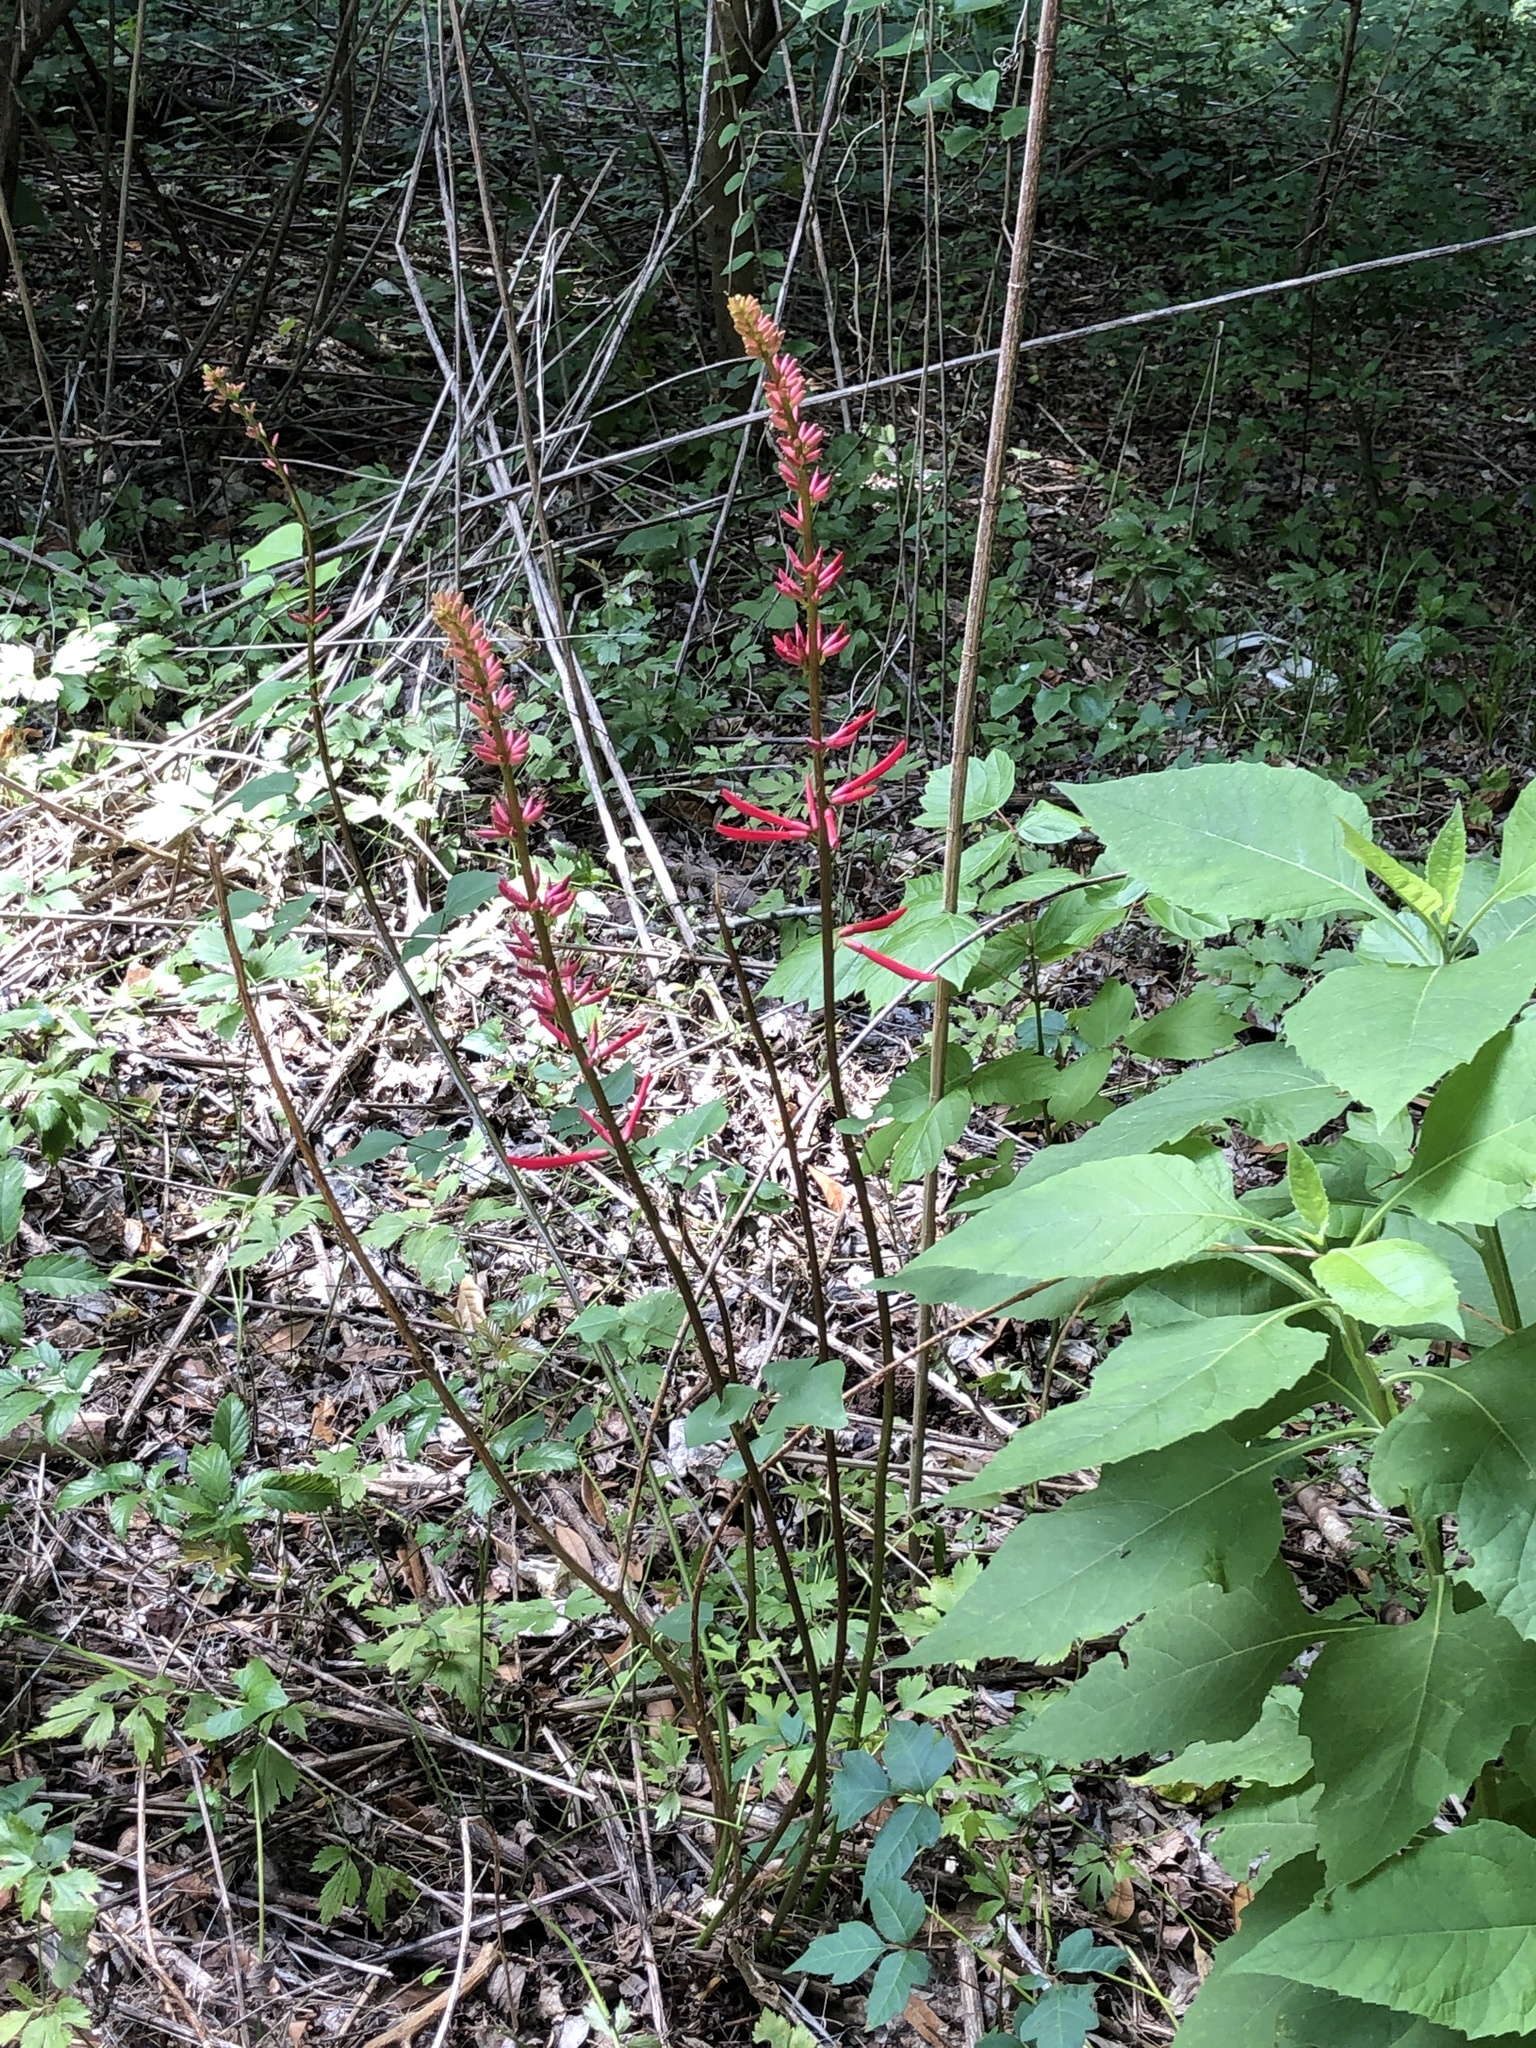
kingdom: Plantae
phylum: Tracheophyta
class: Magnoliopsida
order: Fabales
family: Fabaceae
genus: Erythrina
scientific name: Erythrina herbacea
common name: Coral-bean
